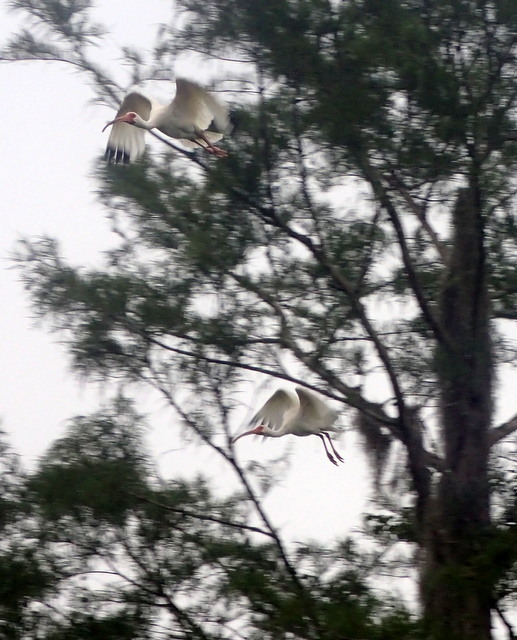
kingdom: Animalia
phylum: Chordata
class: Aves
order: Pelecaniformes
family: Threskiornithidae
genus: Eudocimus
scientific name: Eudocimus albus
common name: White ibis
